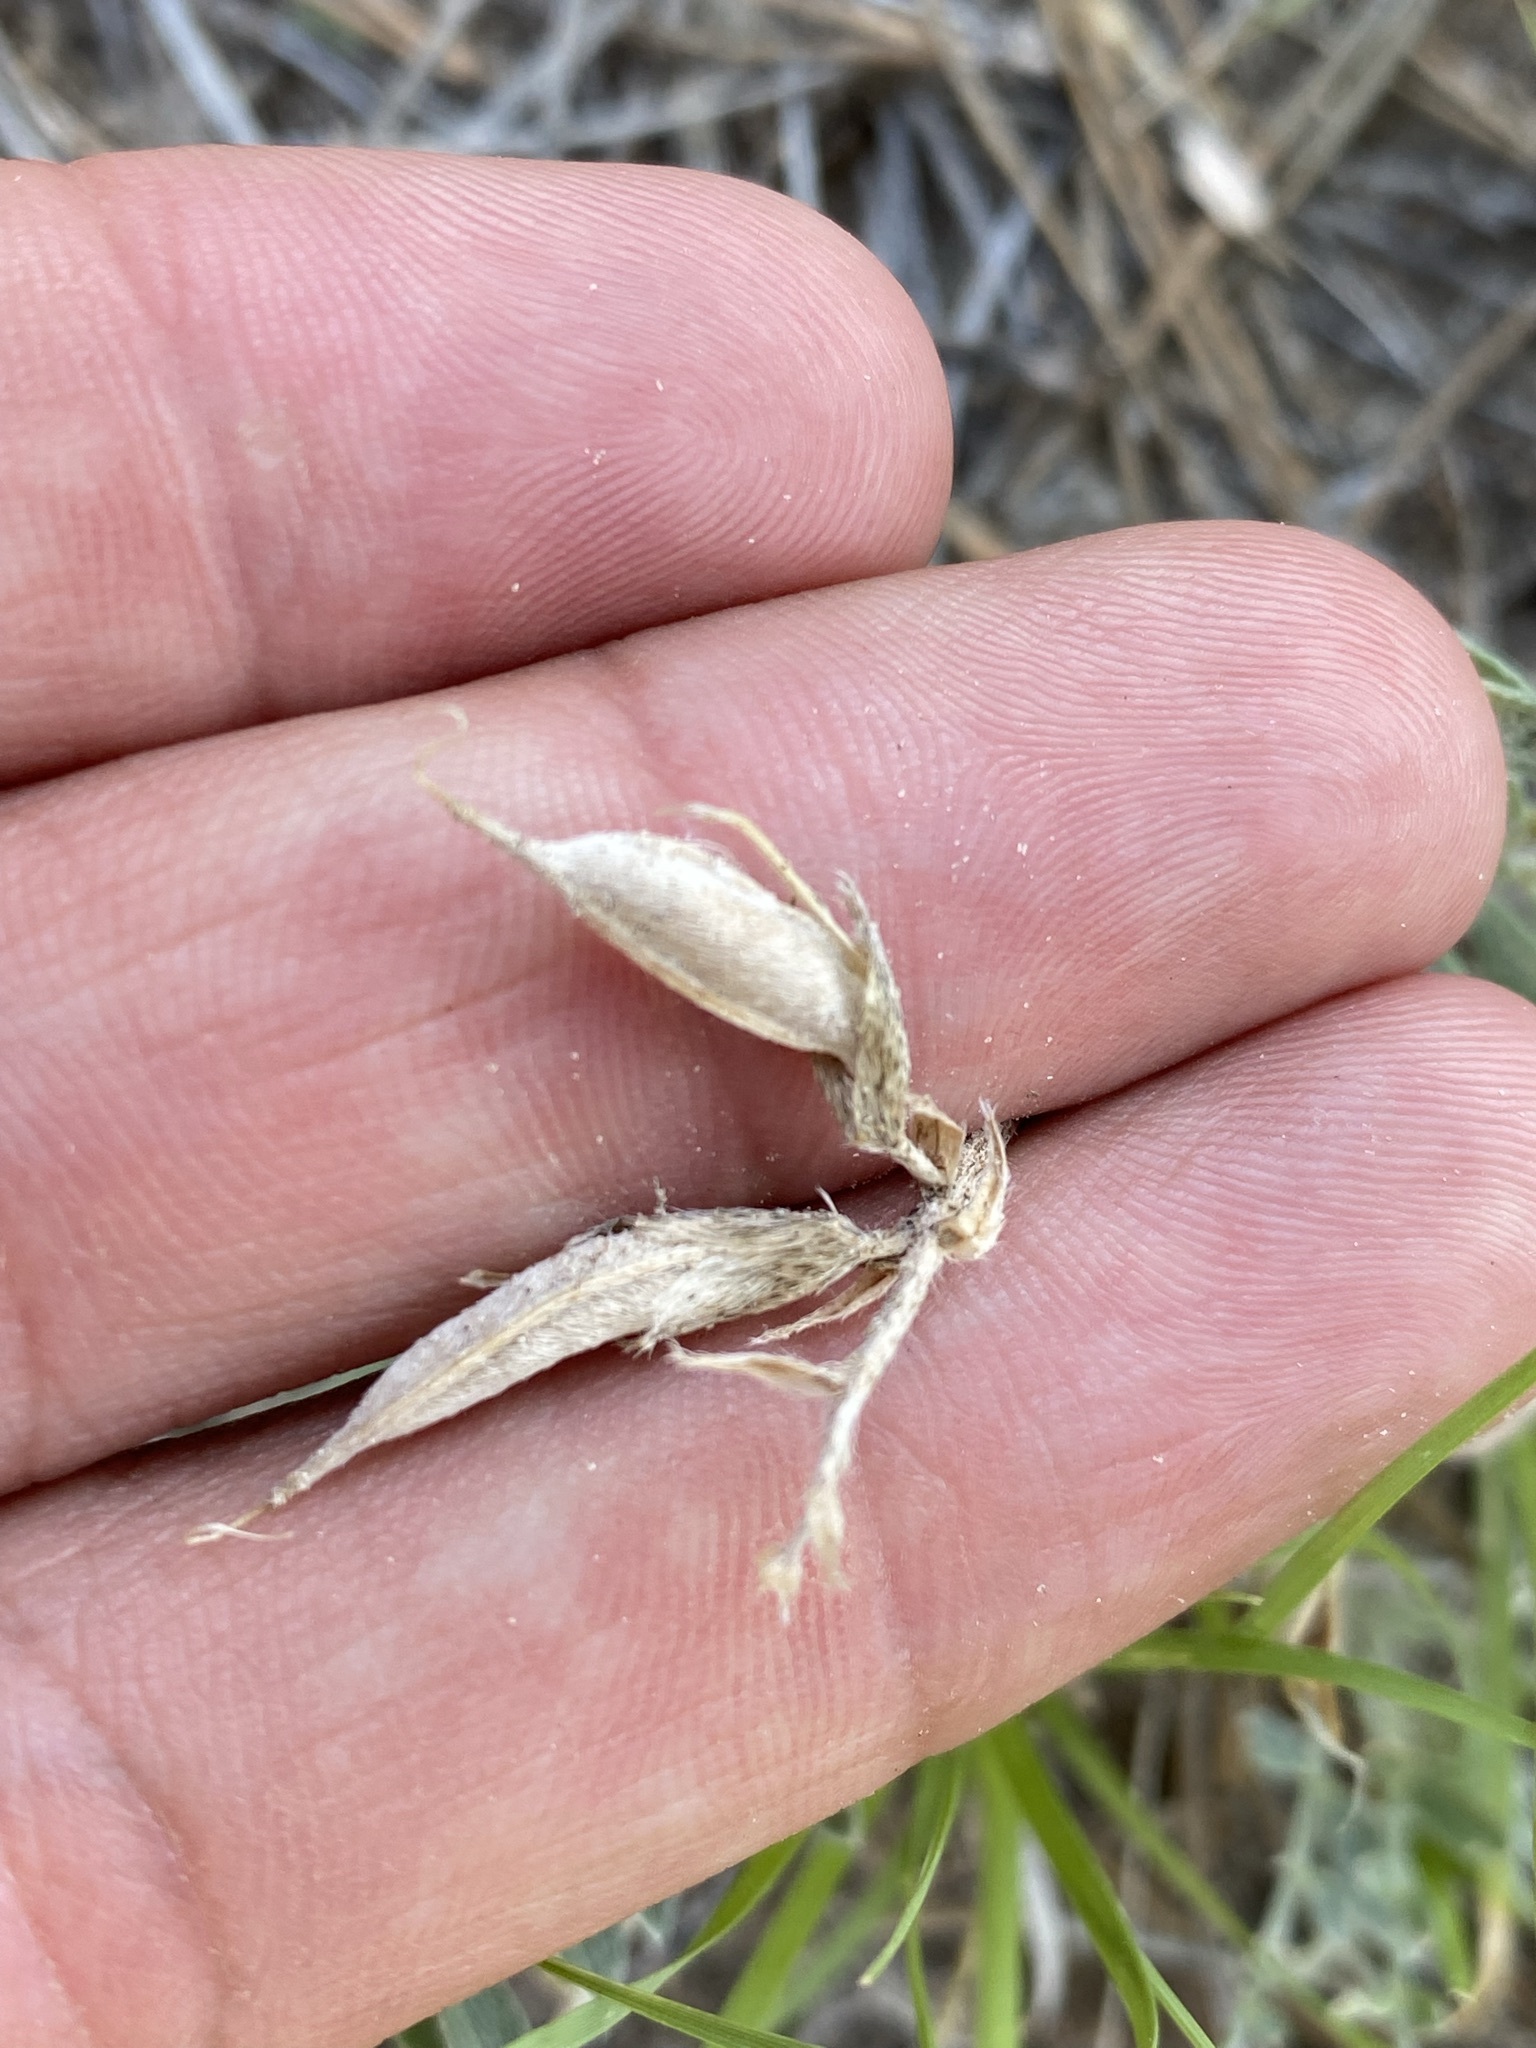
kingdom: Plantae
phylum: Tracheophyta
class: Magnoliopsida
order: Fabales
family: Fabaceae
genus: Astragalus
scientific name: Astragalus missouriensis
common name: Missouri milk-vetch
